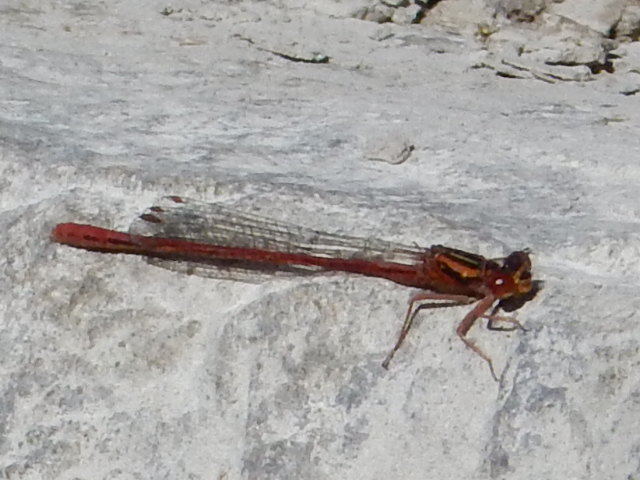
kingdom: Animalia
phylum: Arthropoda
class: Insecta
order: Odonata
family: Coenagrionidae
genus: Xanthocnemis
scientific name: Xanthocnemis zealandica
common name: Common redcoat damselfly
